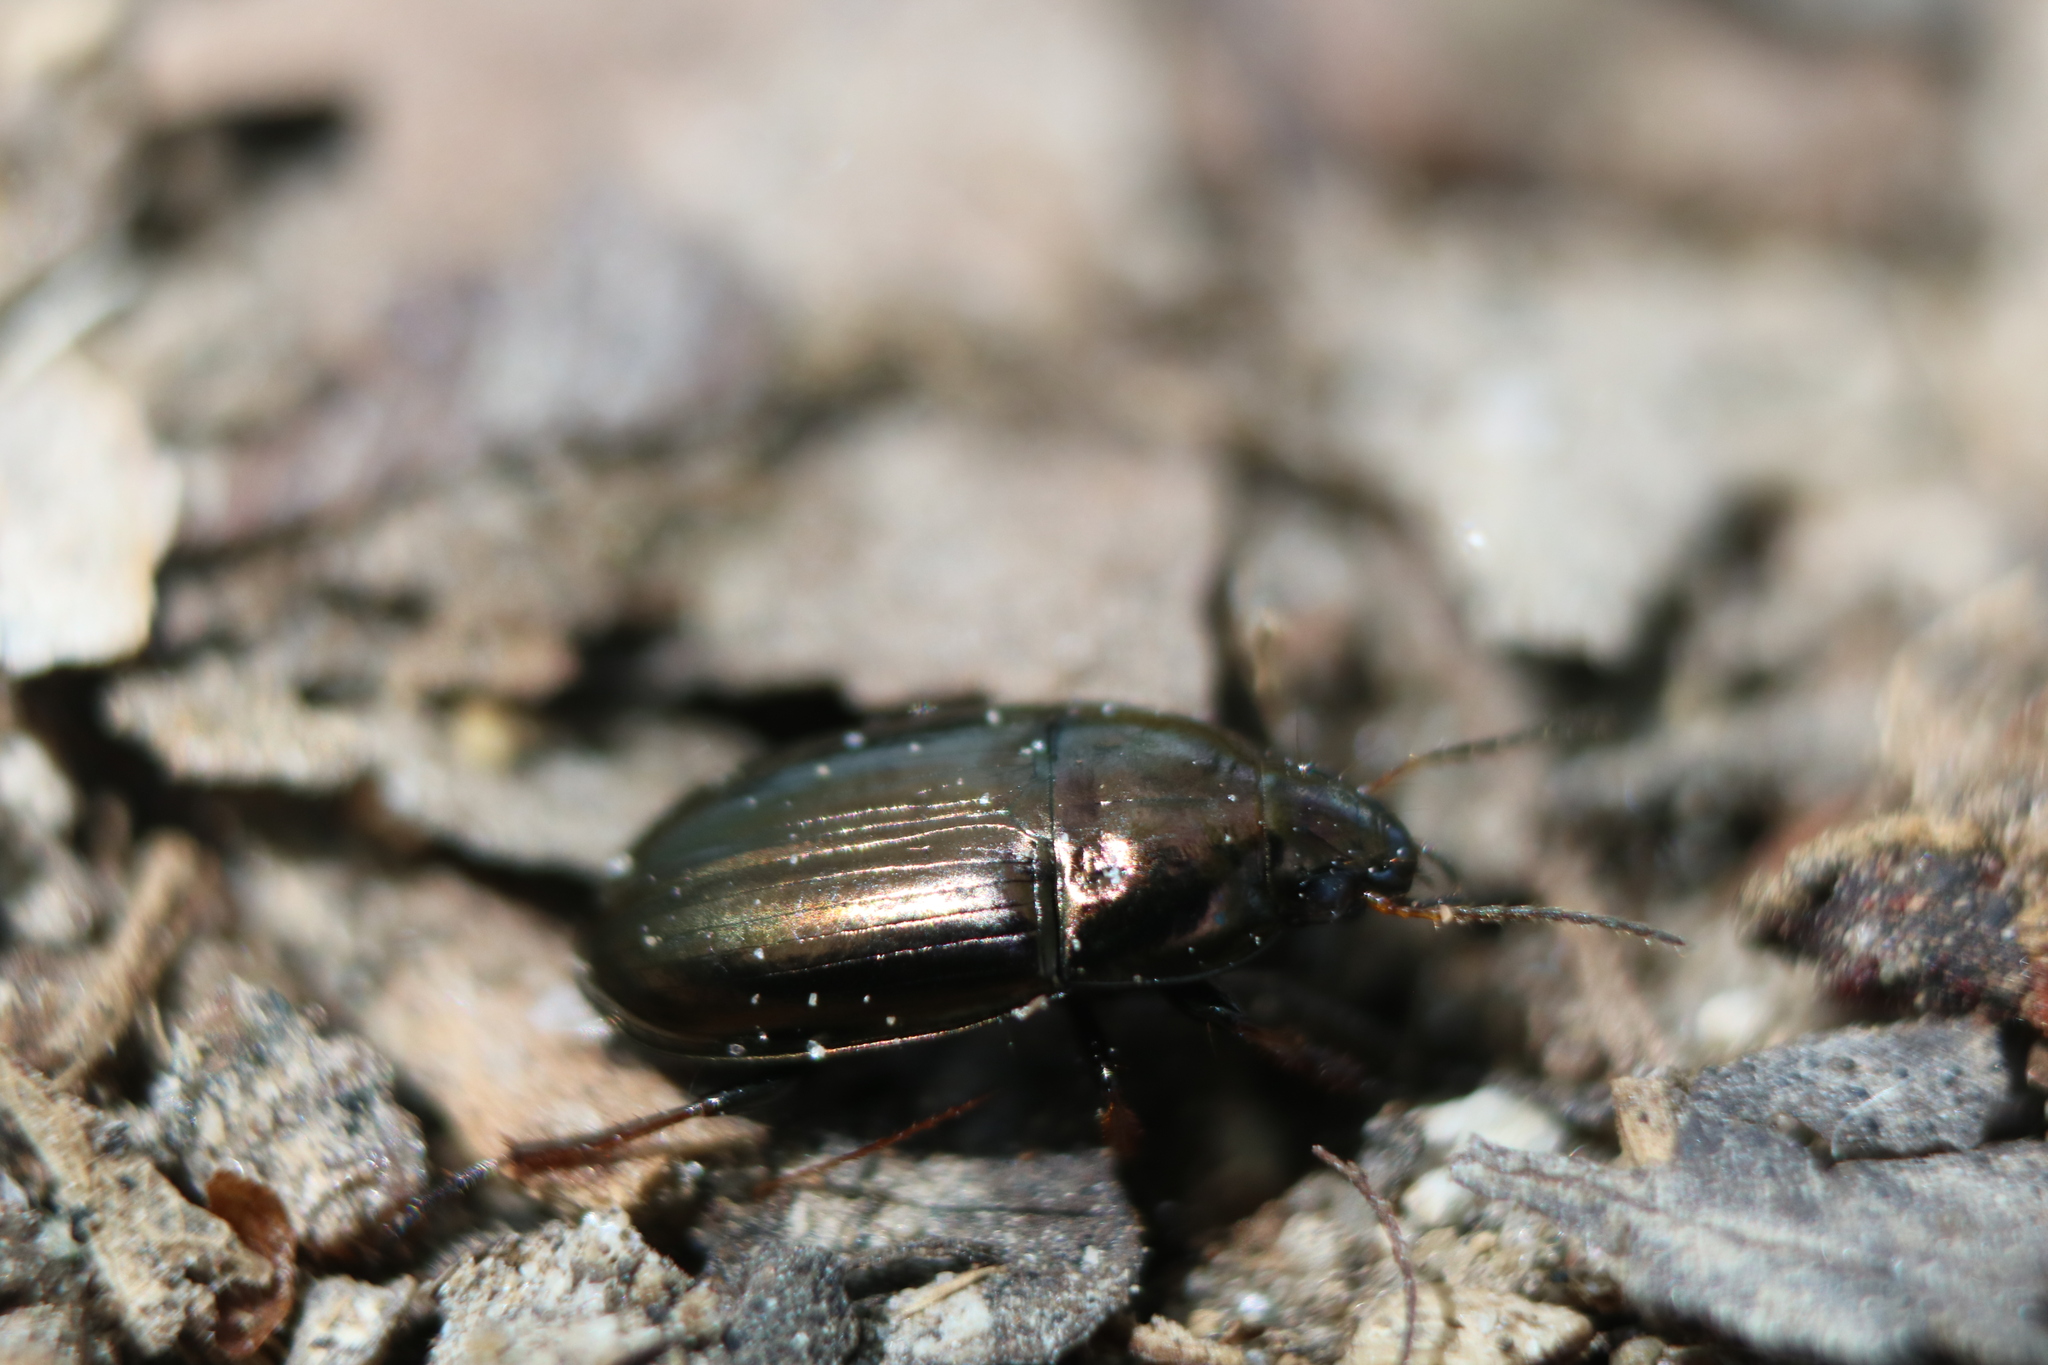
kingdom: Animalia
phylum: Arthropoda
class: Insecta
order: Coleoptera
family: Carabidae
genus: Amara
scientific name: Amara aenea
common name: Common sun beetle
